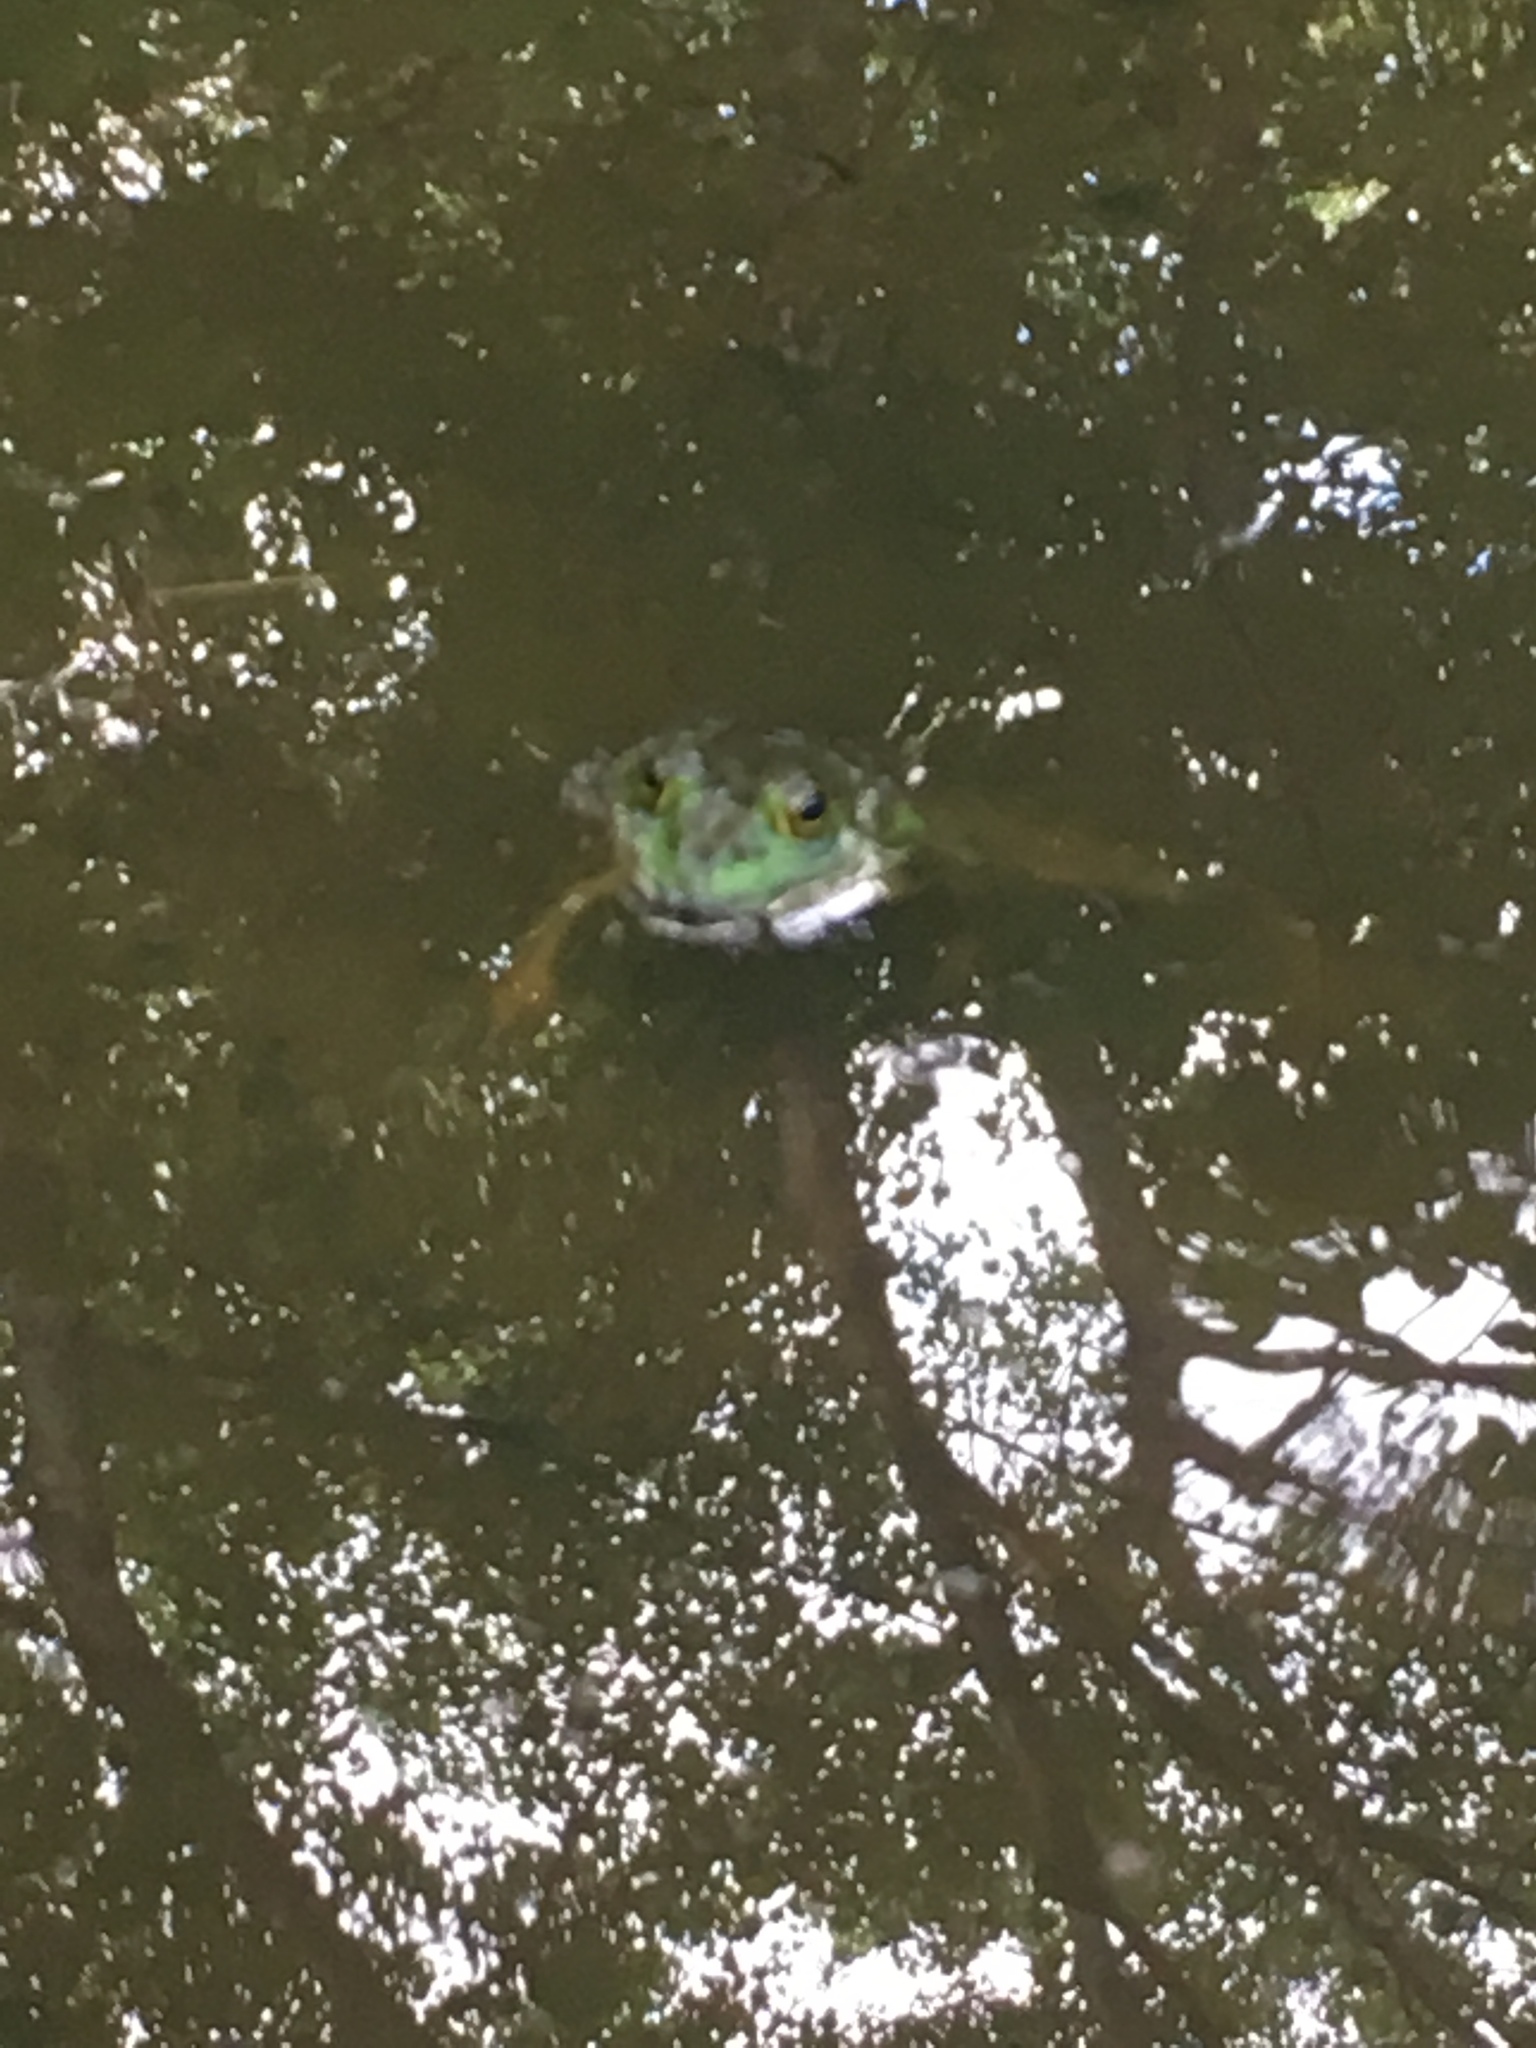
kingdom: Animalia
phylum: Chordata
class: Amphibia
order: Anura
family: Ranidae
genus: Lithobates
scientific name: Lithobates catesbeianus
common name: American bullfrog
